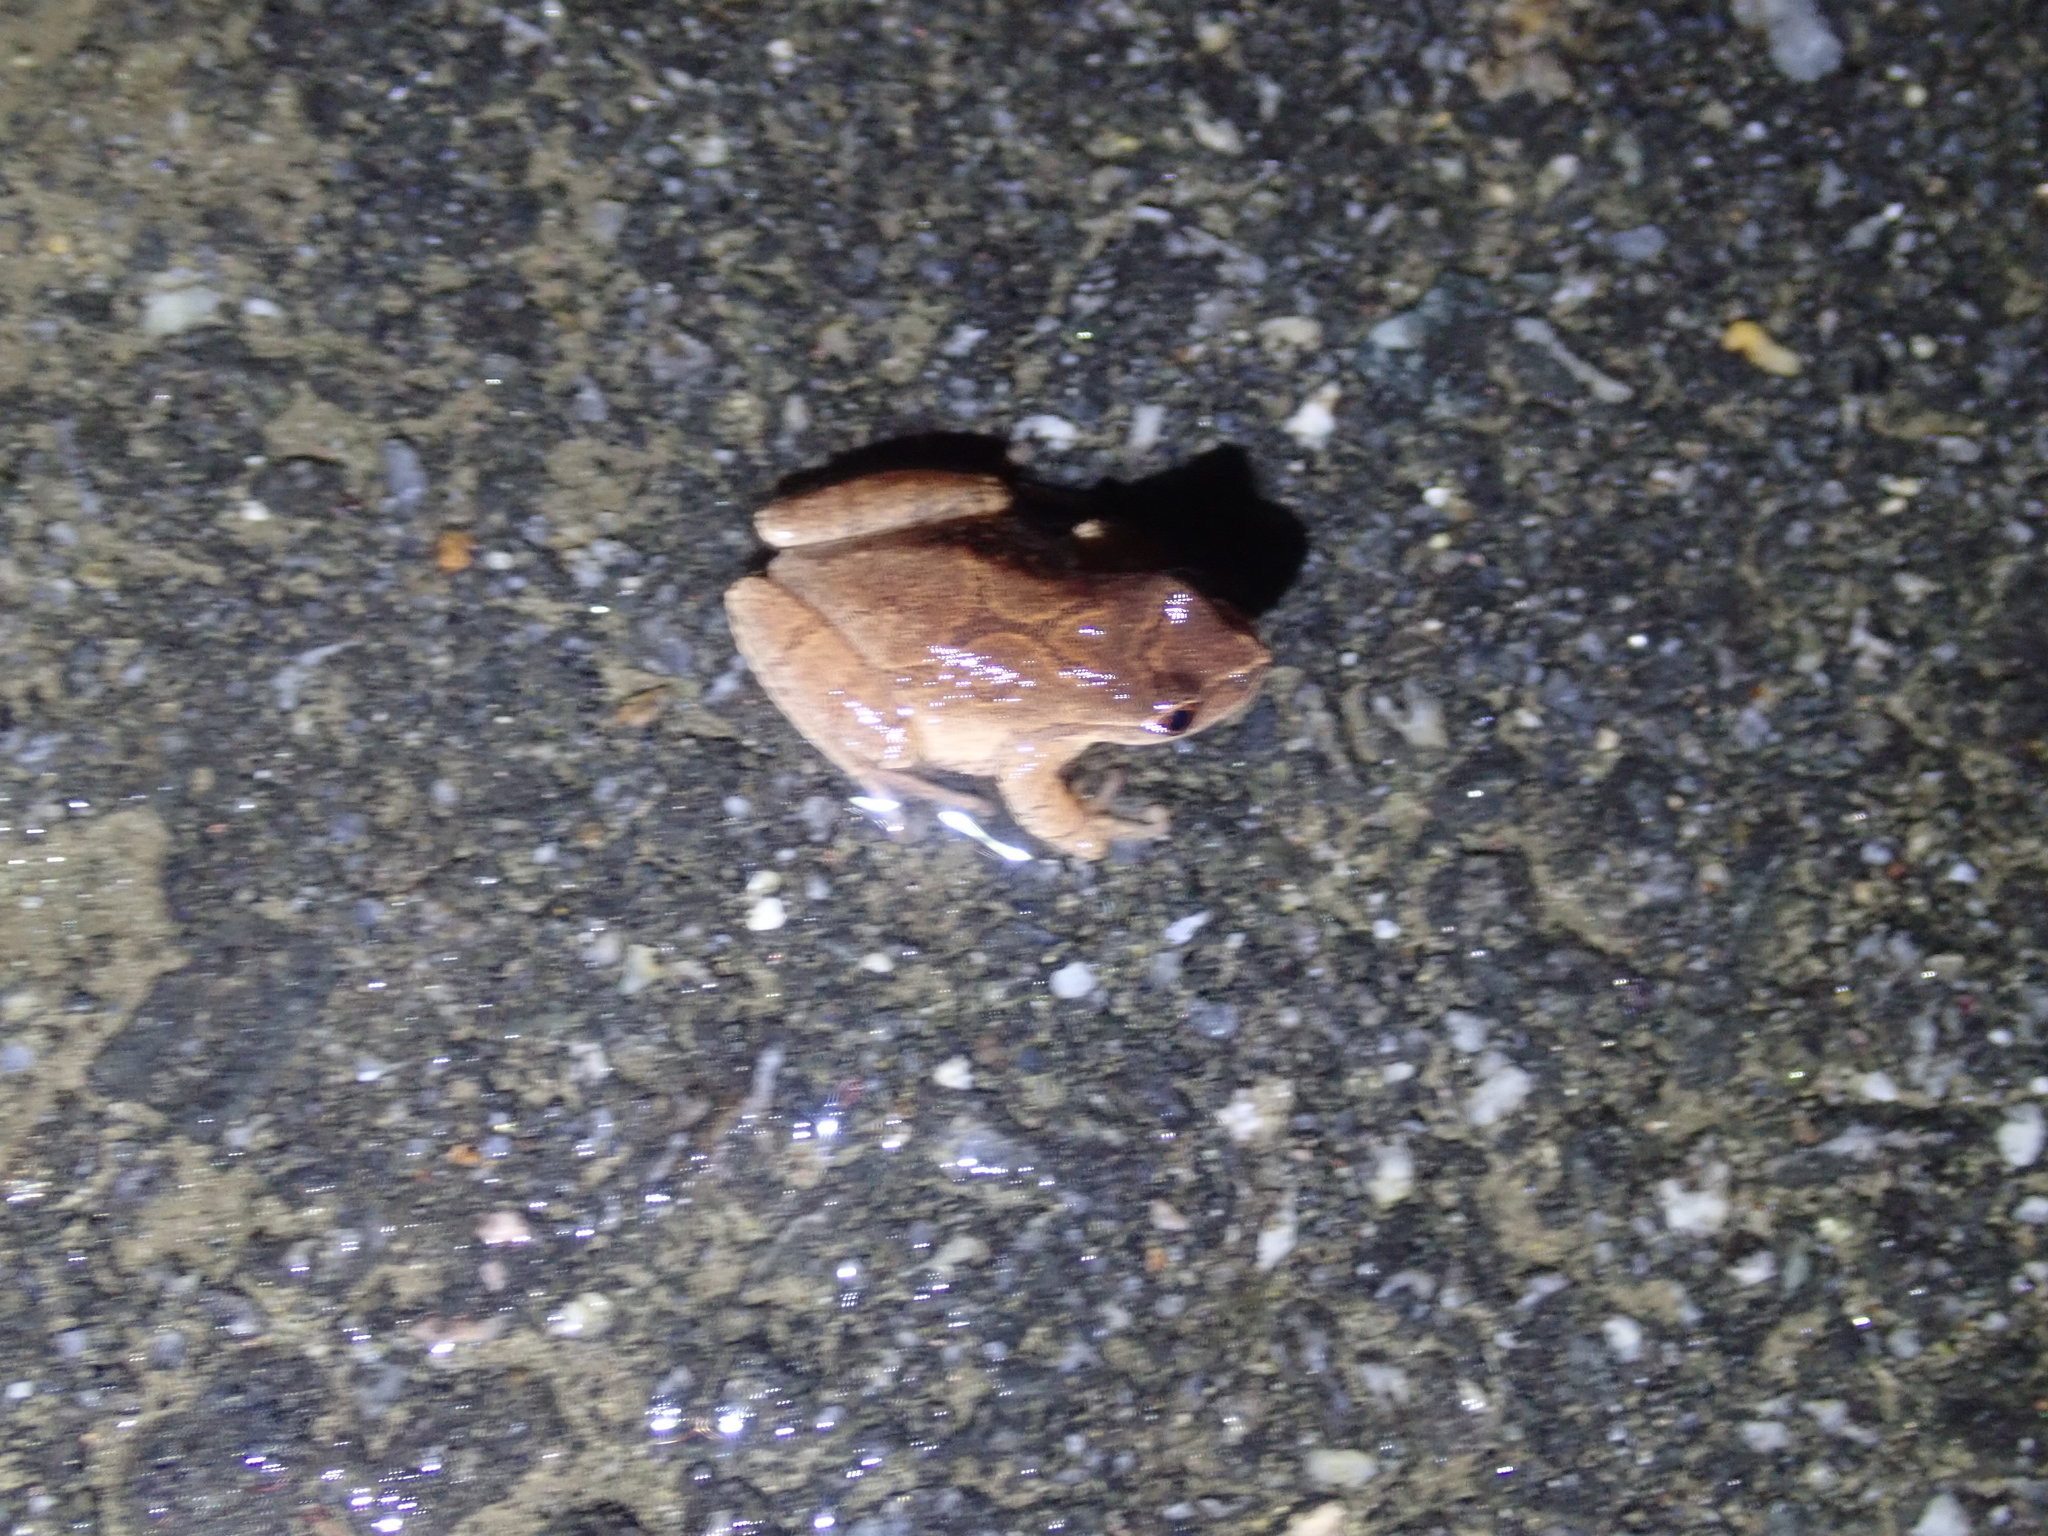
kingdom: Animalia
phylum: Chordata
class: Amphibia
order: Anura
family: Hylidae
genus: Pseudacris
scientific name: Pseudacris crucifer
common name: Spring peeper
